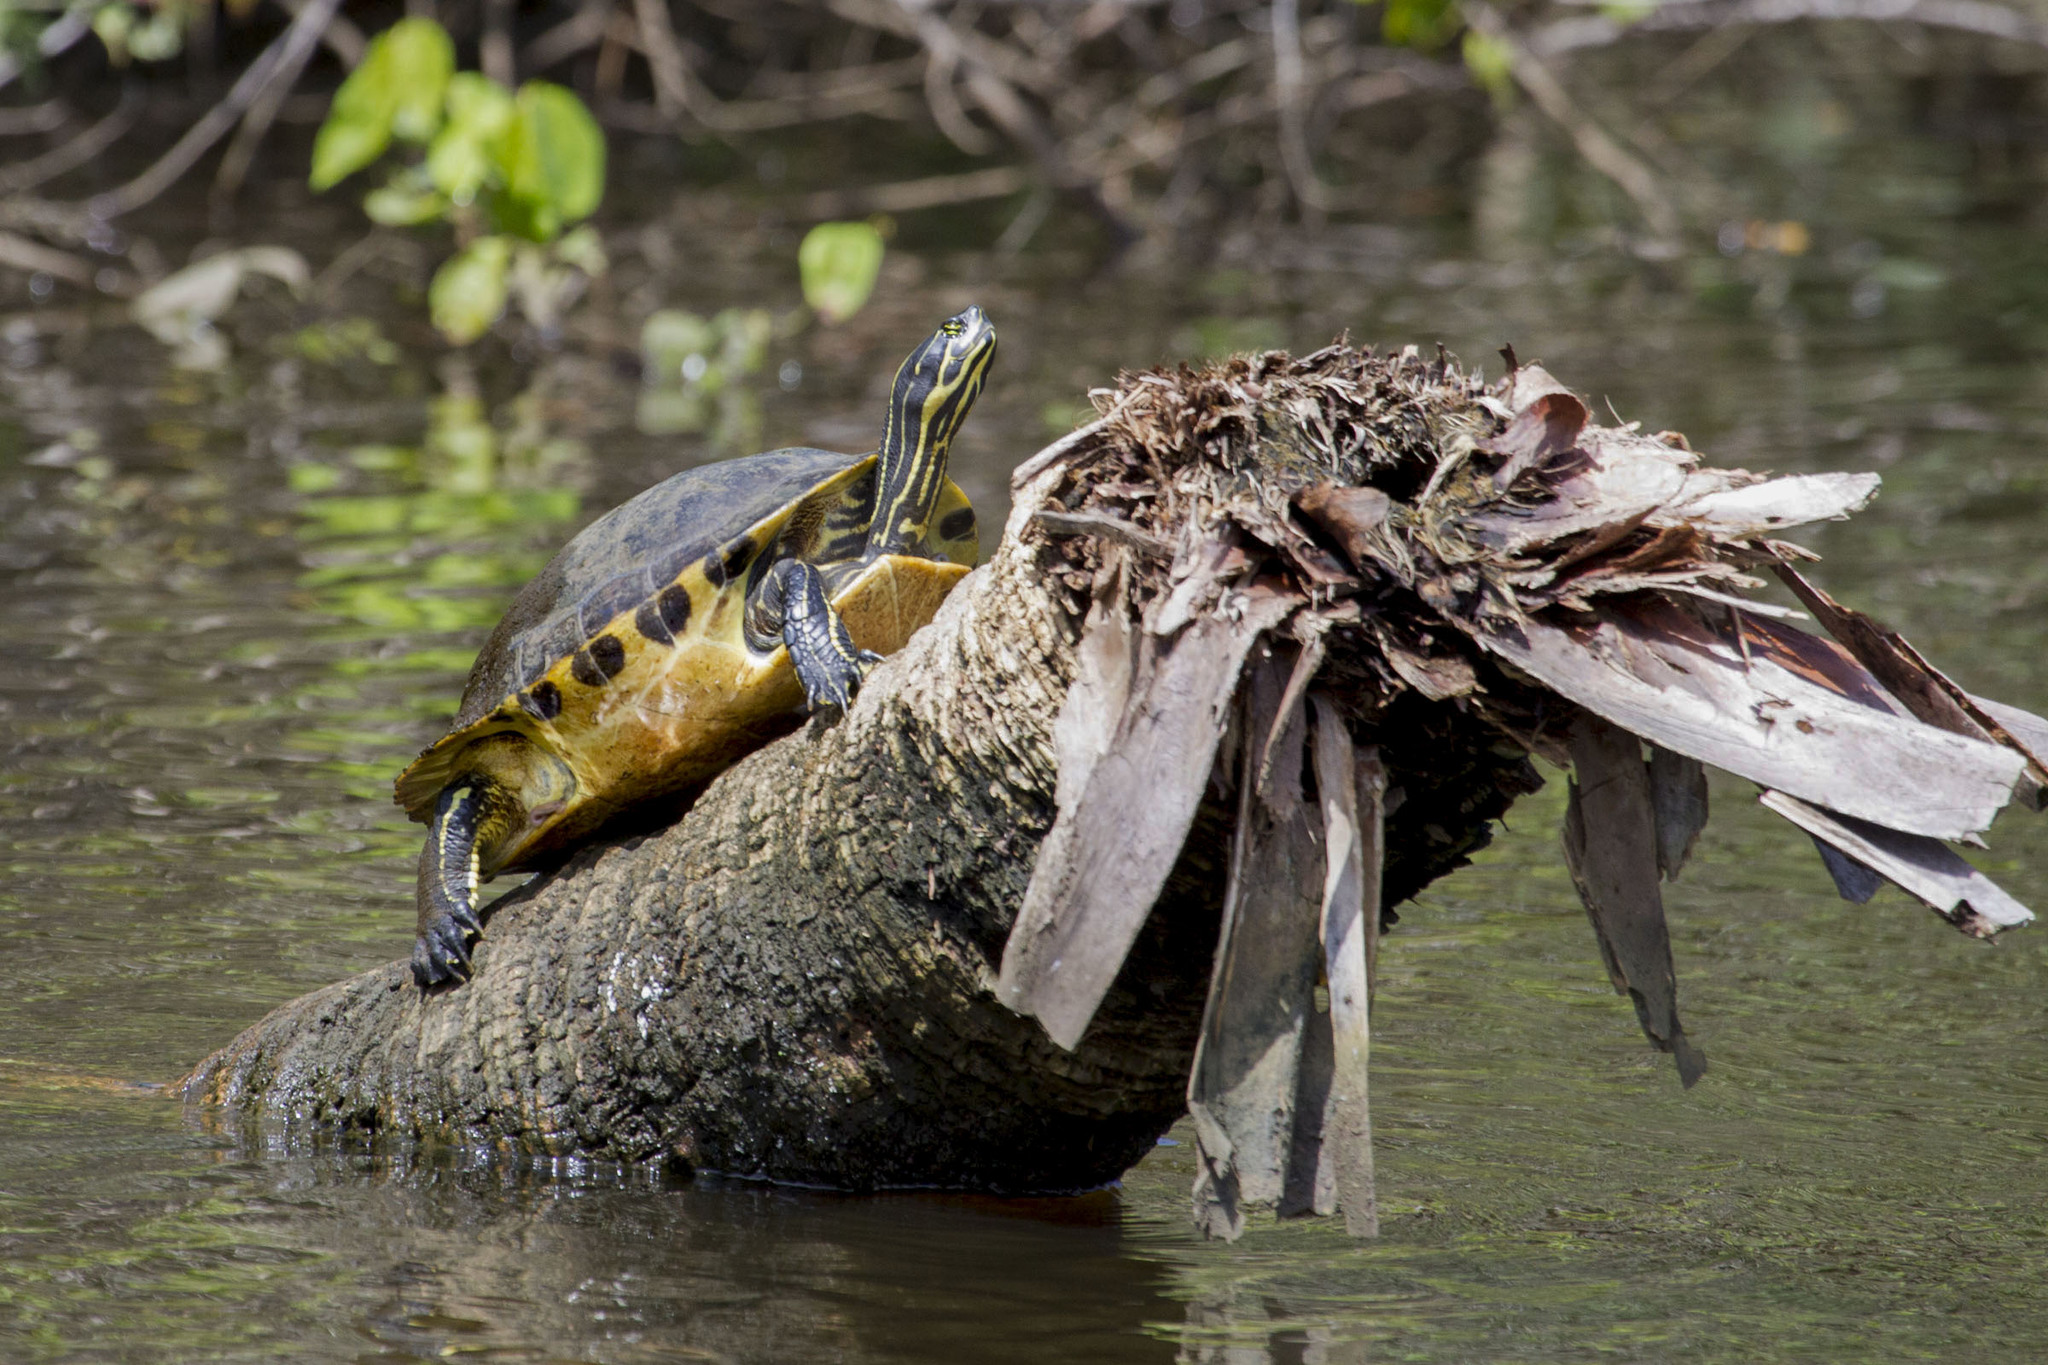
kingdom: Animalia
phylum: Chordata
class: Testudines
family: Emydidae
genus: Pseudemys
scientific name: Pseudemys peninsularis
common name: Peninsula cooter
